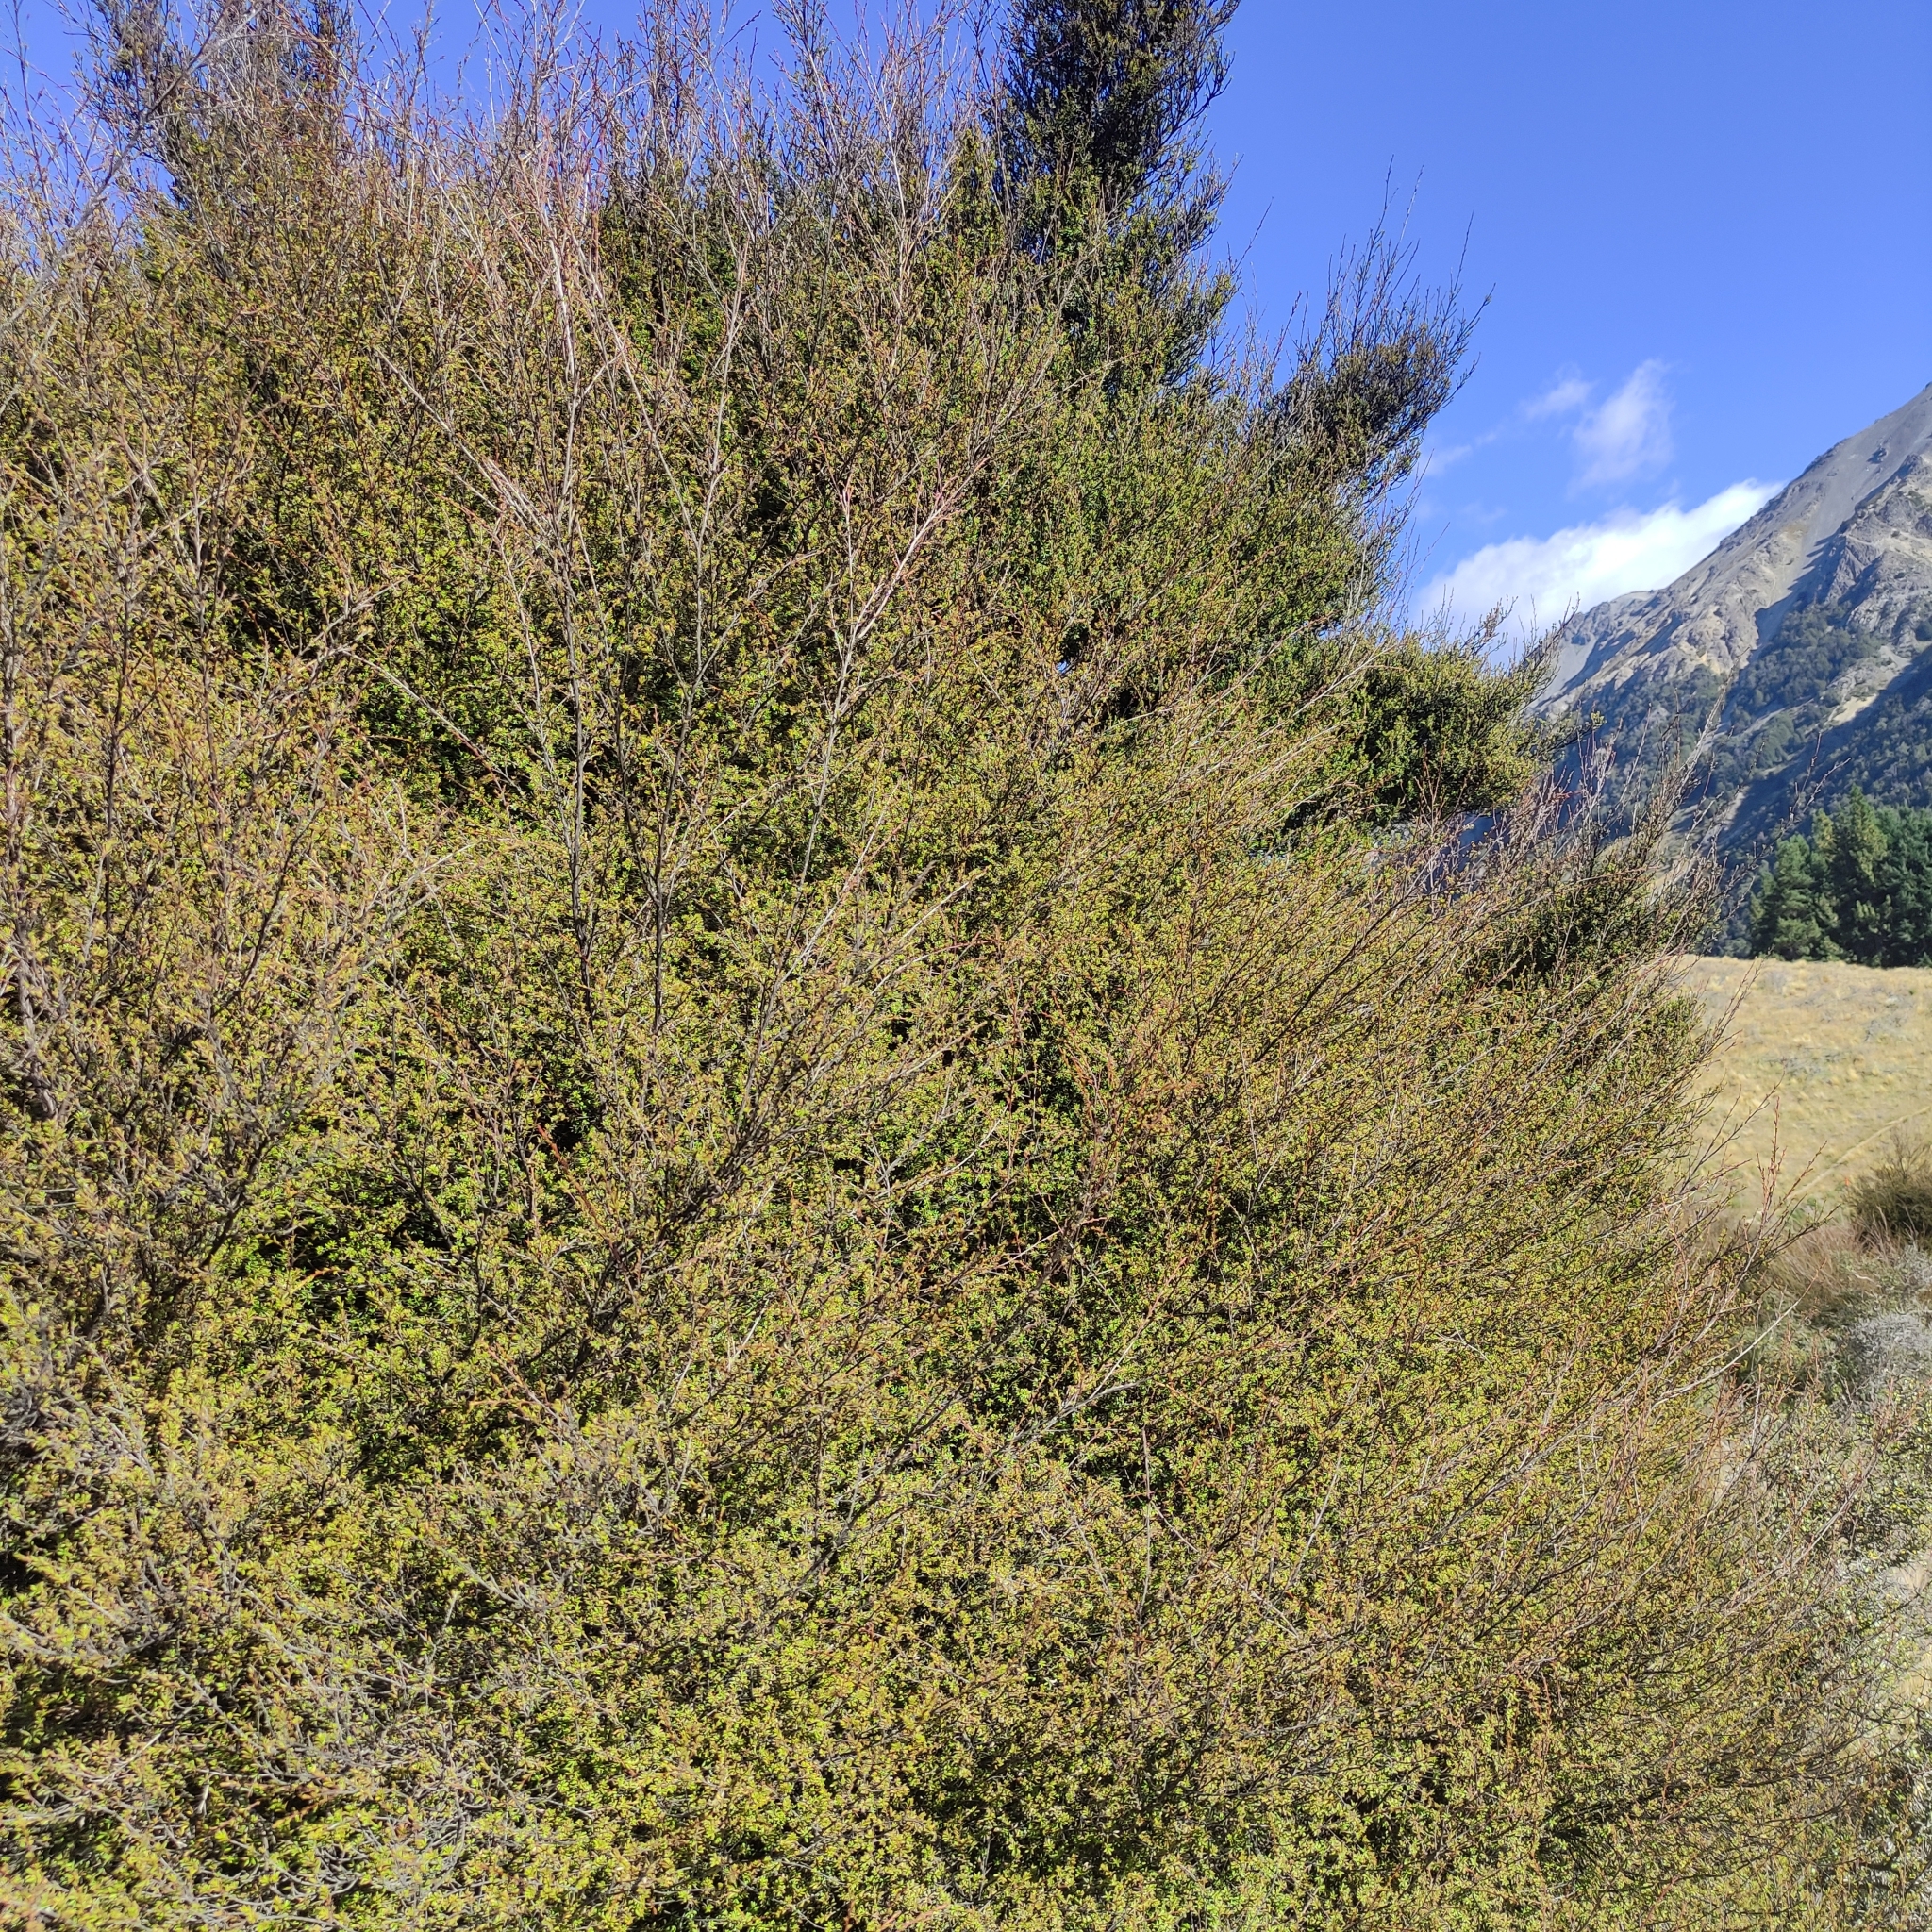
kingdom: Plantae
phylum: Tracheophyta
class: Magnoliopsida
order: Myrtales
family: Myrtaceae
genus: Kunzea
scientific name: Kunzea ericoides
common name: Burgan
